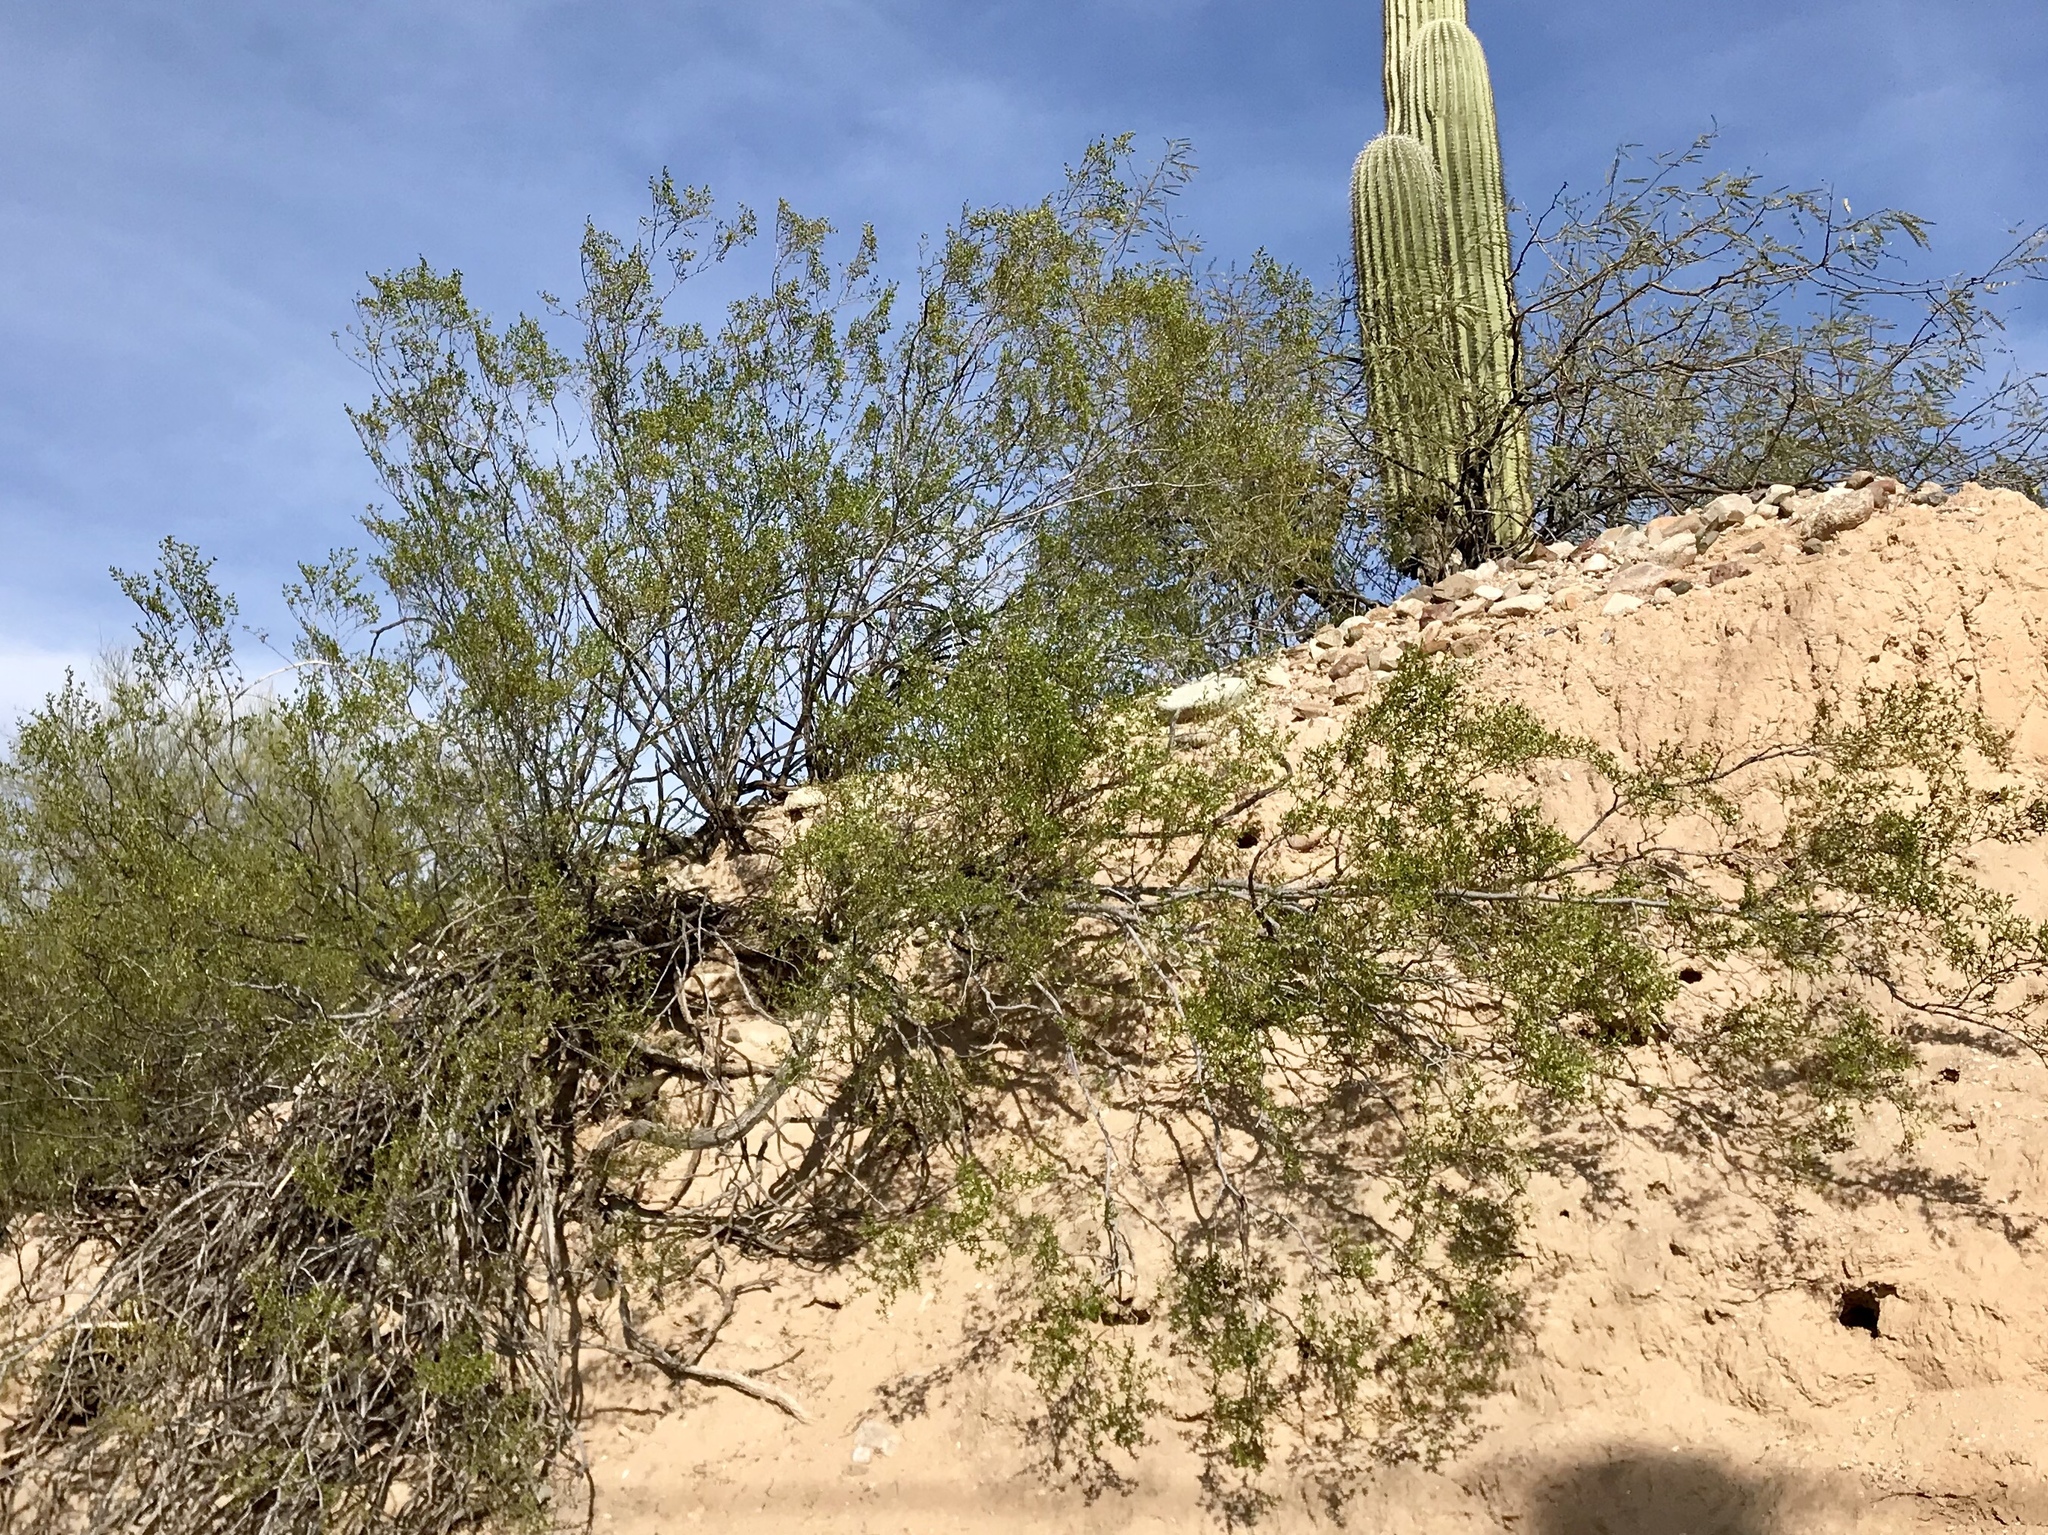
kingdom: Plantae
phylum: Tracheophyta
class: Magnoliopsida
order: Zygophyllales
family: Zygophyllaceae
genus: Larrea
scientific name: Larrea tridentata
